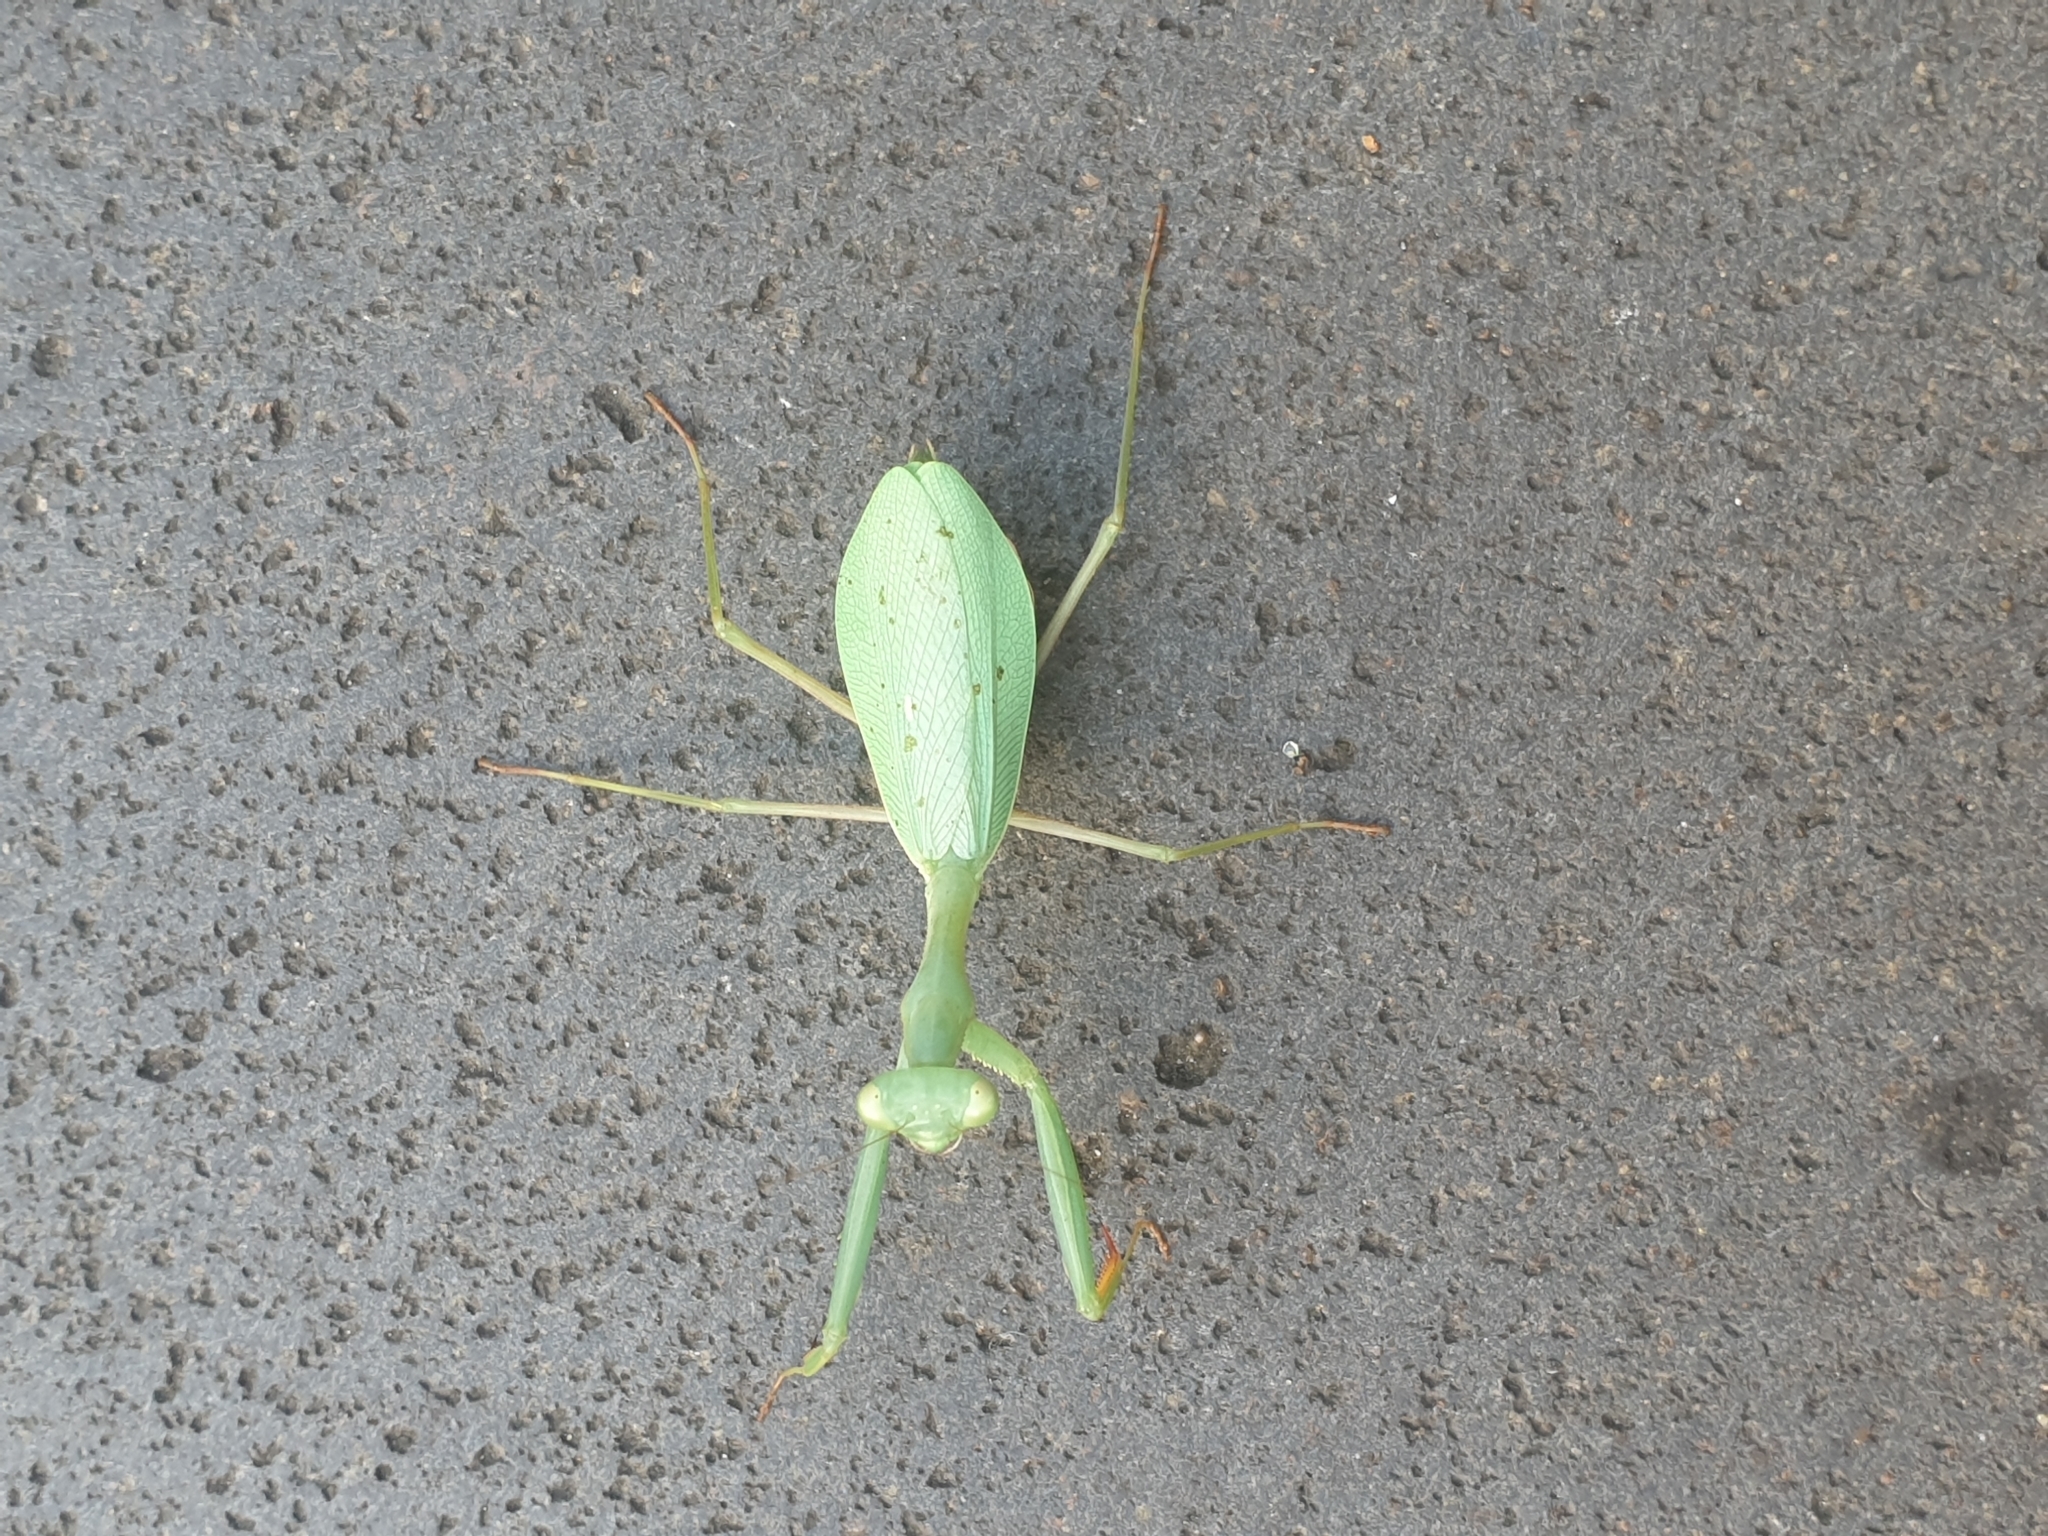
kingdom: Animalia
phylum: Arthropoda
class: Insecta
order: Mantodea
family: Miomantidae
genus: Miomantis
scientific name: Miomantis caffra
